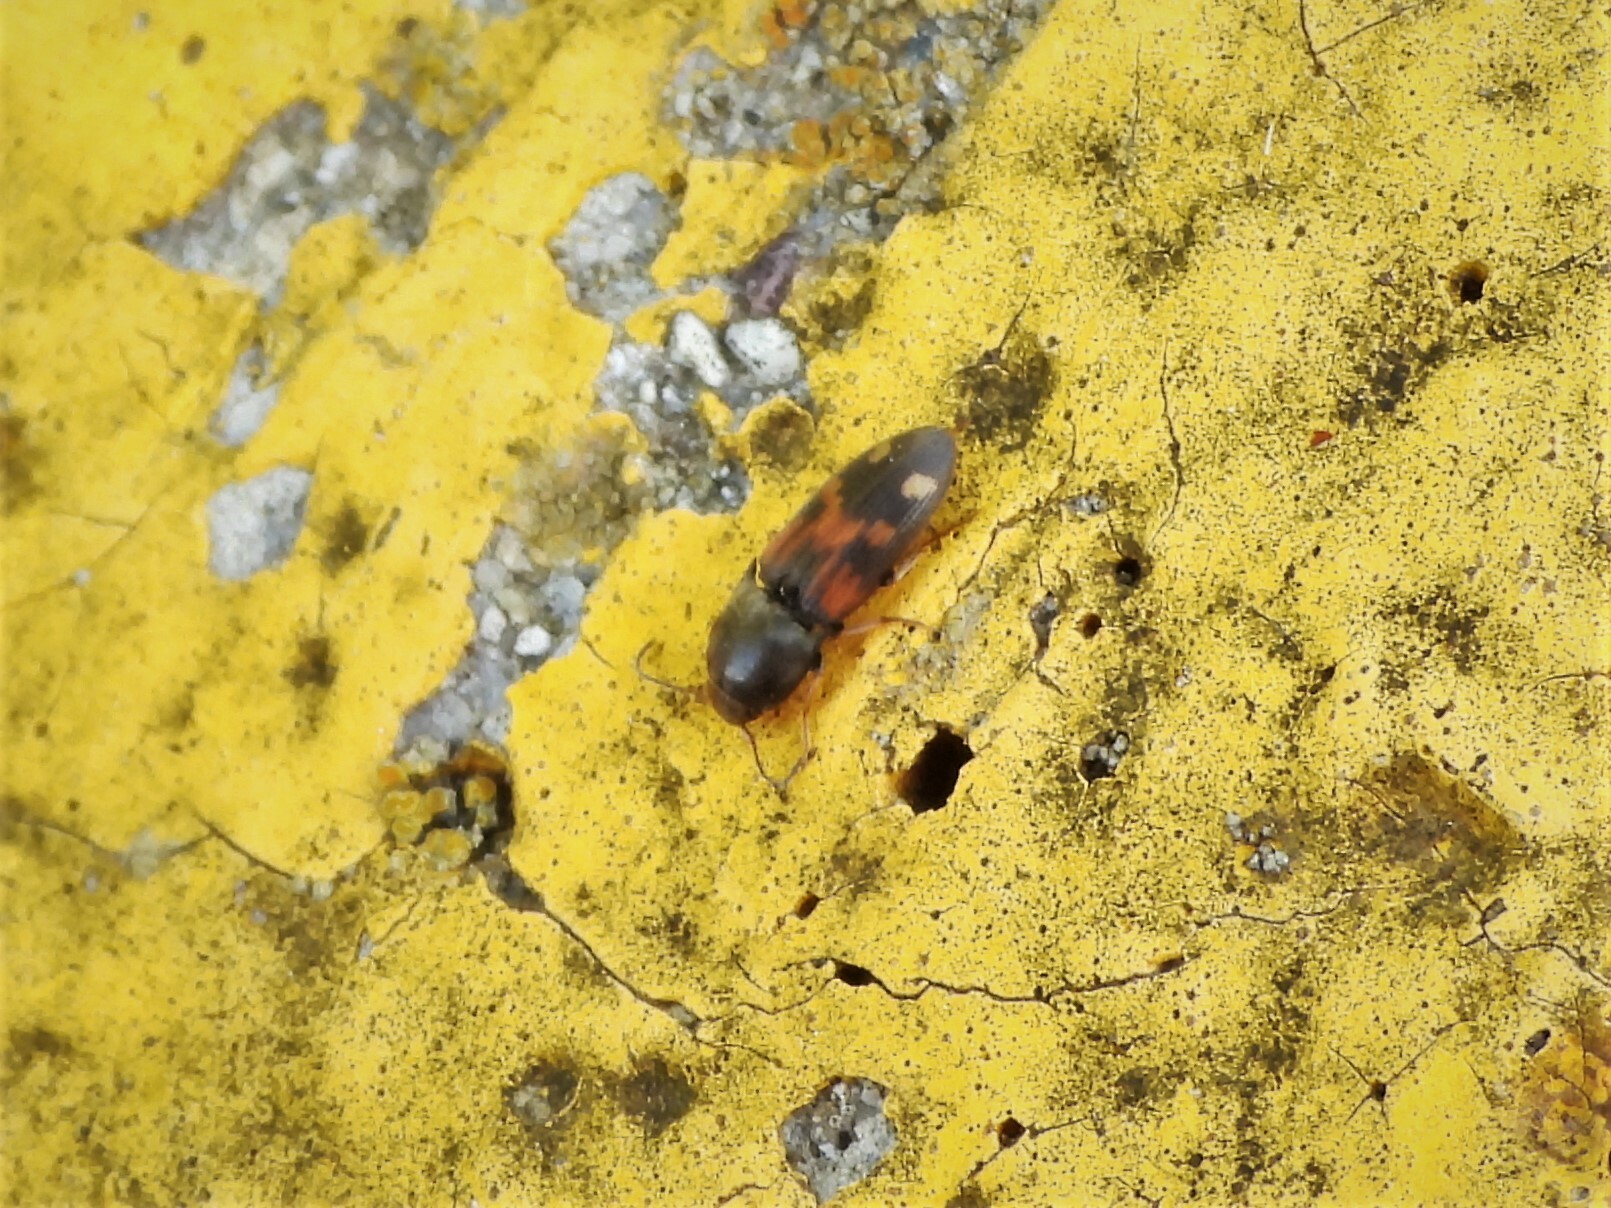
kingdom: Animalia
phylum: Arthropoda
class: Insecta
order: Coleoptera
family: Elateridae
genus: Drasterius
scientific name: Drasterius bimaculatus
